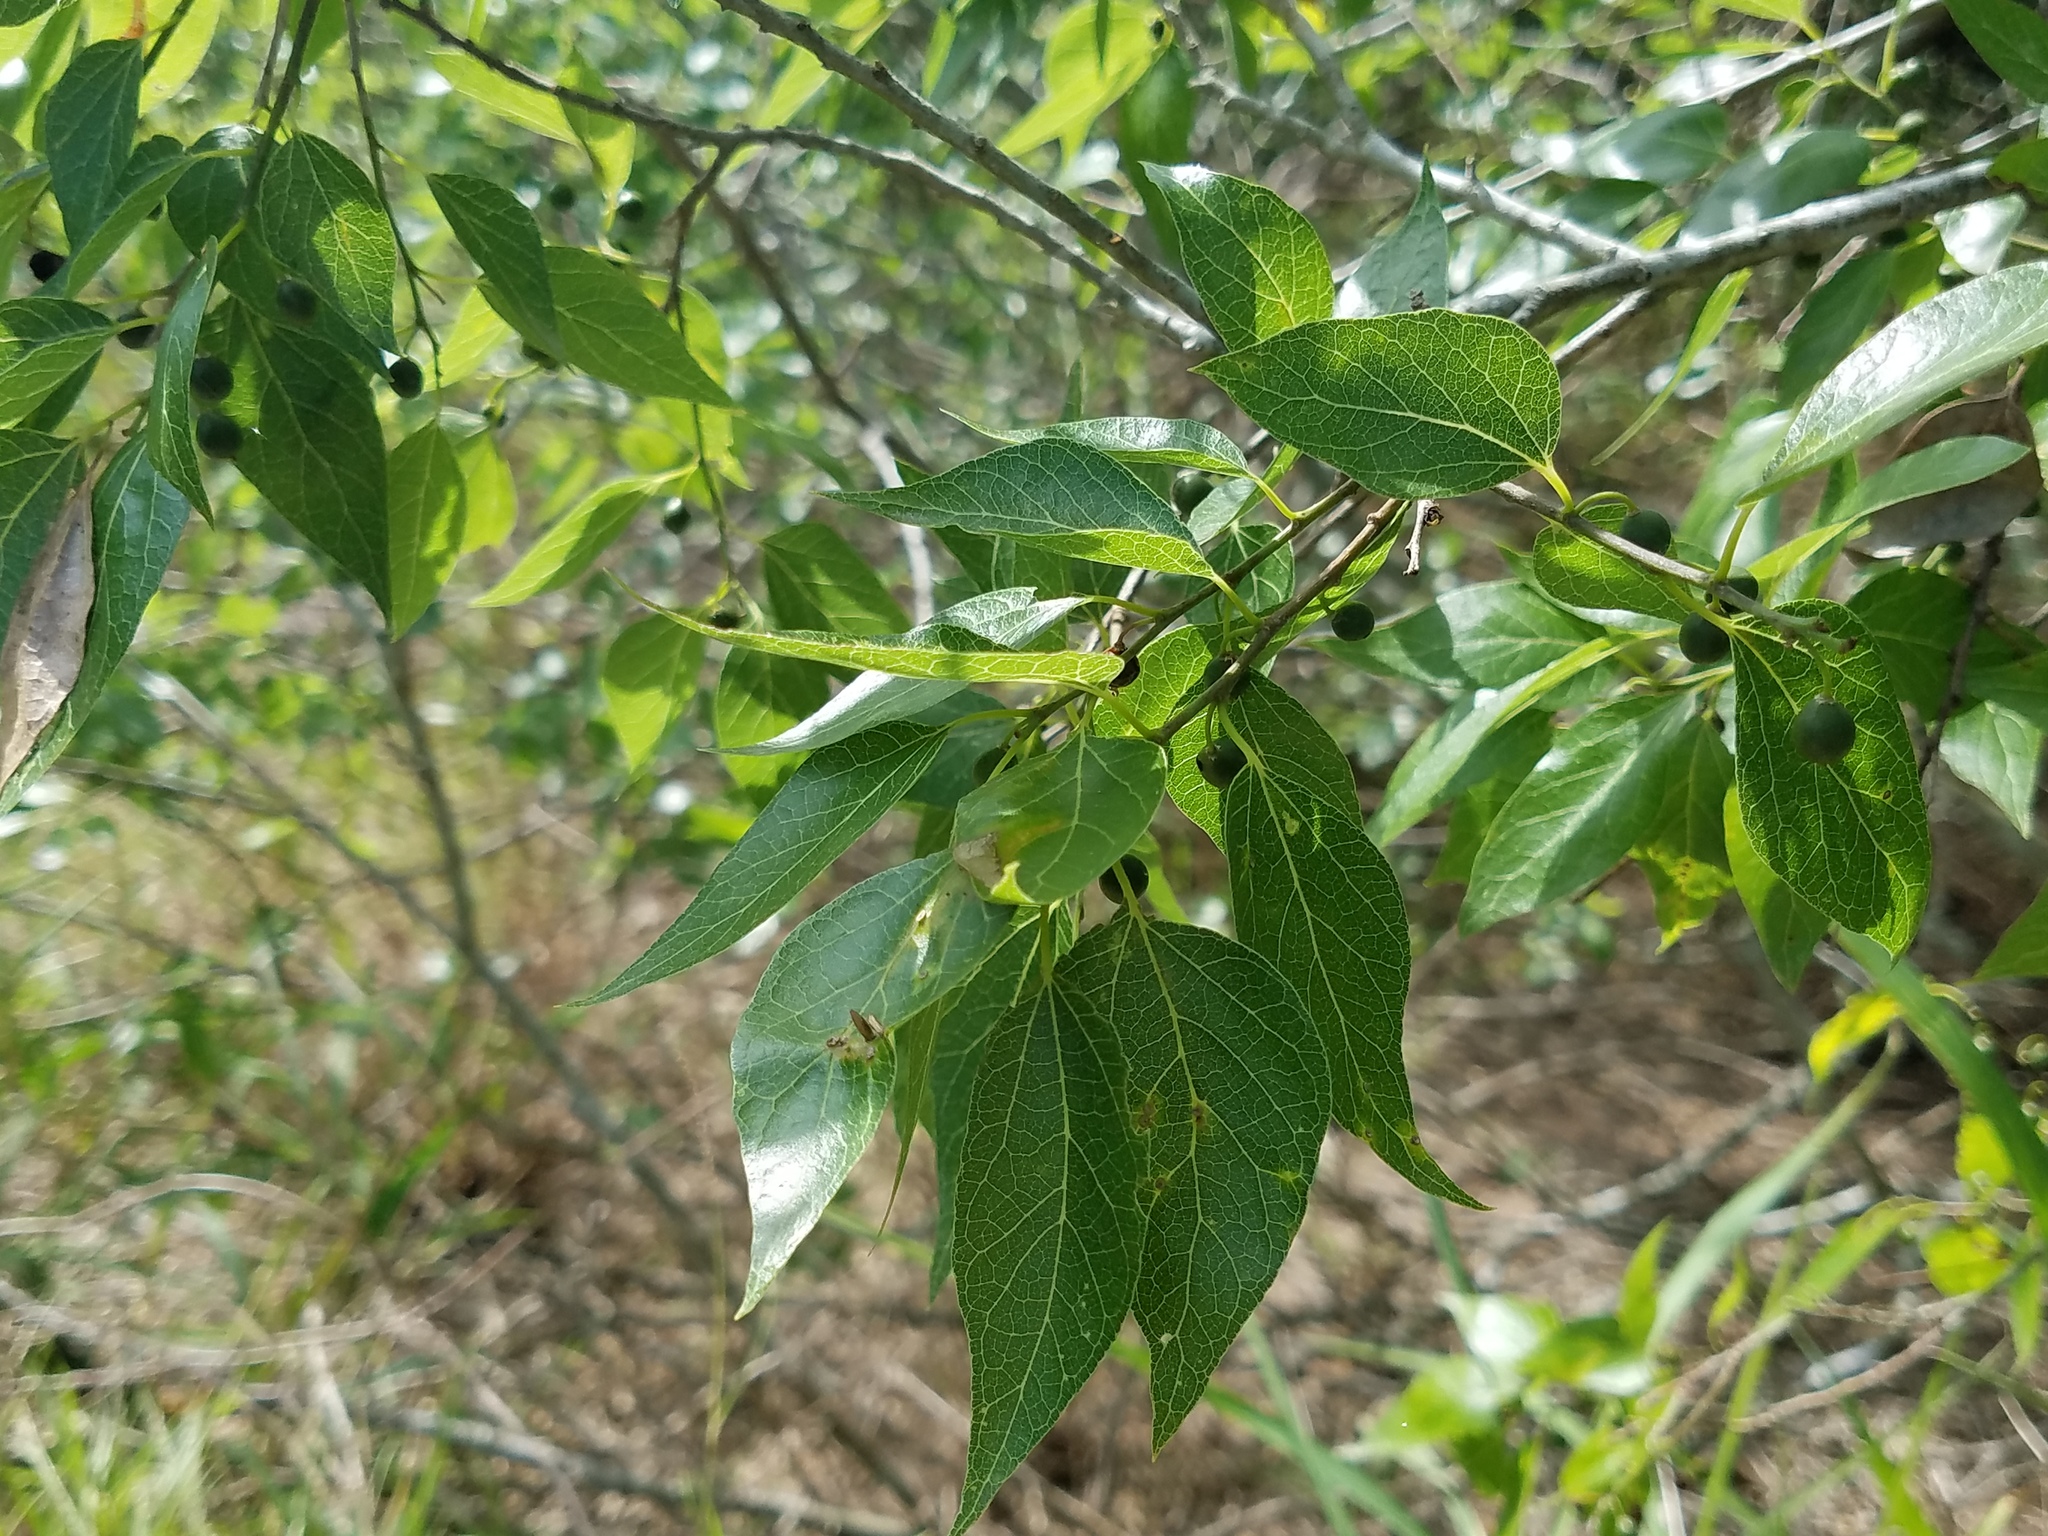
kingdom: Plantae
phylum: Tracheophyta
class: Magnoliopsida
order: Rosales
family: Cannabaceae
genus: Celtis
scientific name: Celtis laevigata
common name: Sugarberry
